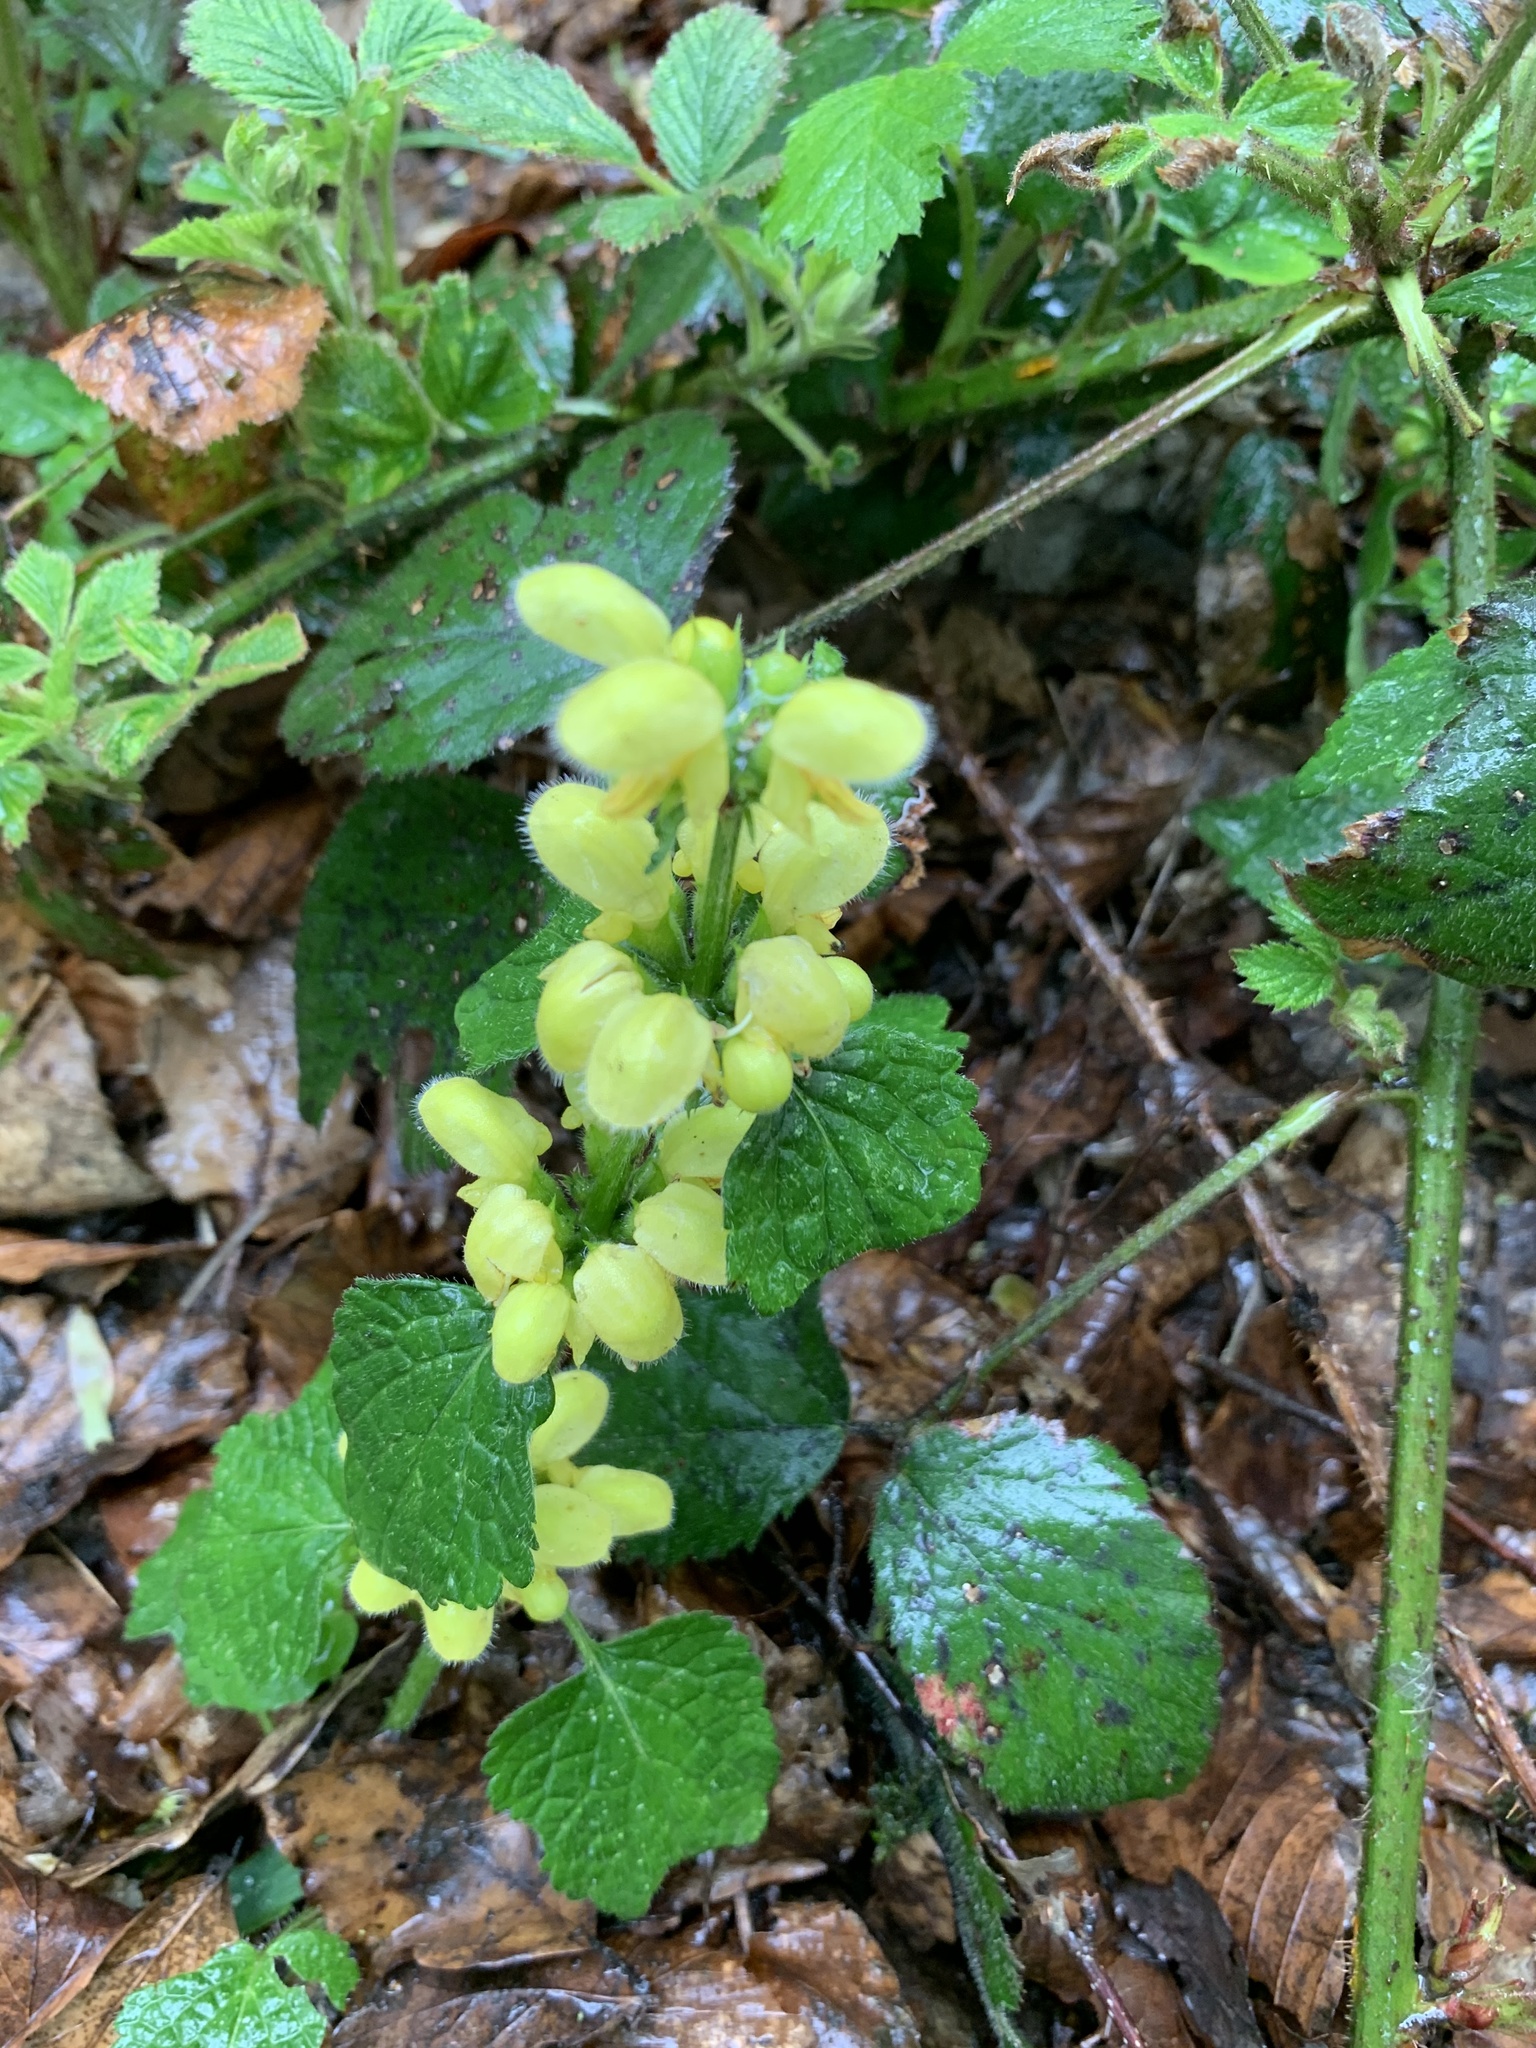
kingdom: Plantae
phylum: Tracheophyta
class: Magnoliopsida
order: Lamiales
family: Lamiaceae
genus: Lamium
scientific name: Lamium galeobdolon
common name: Yellow archangel
